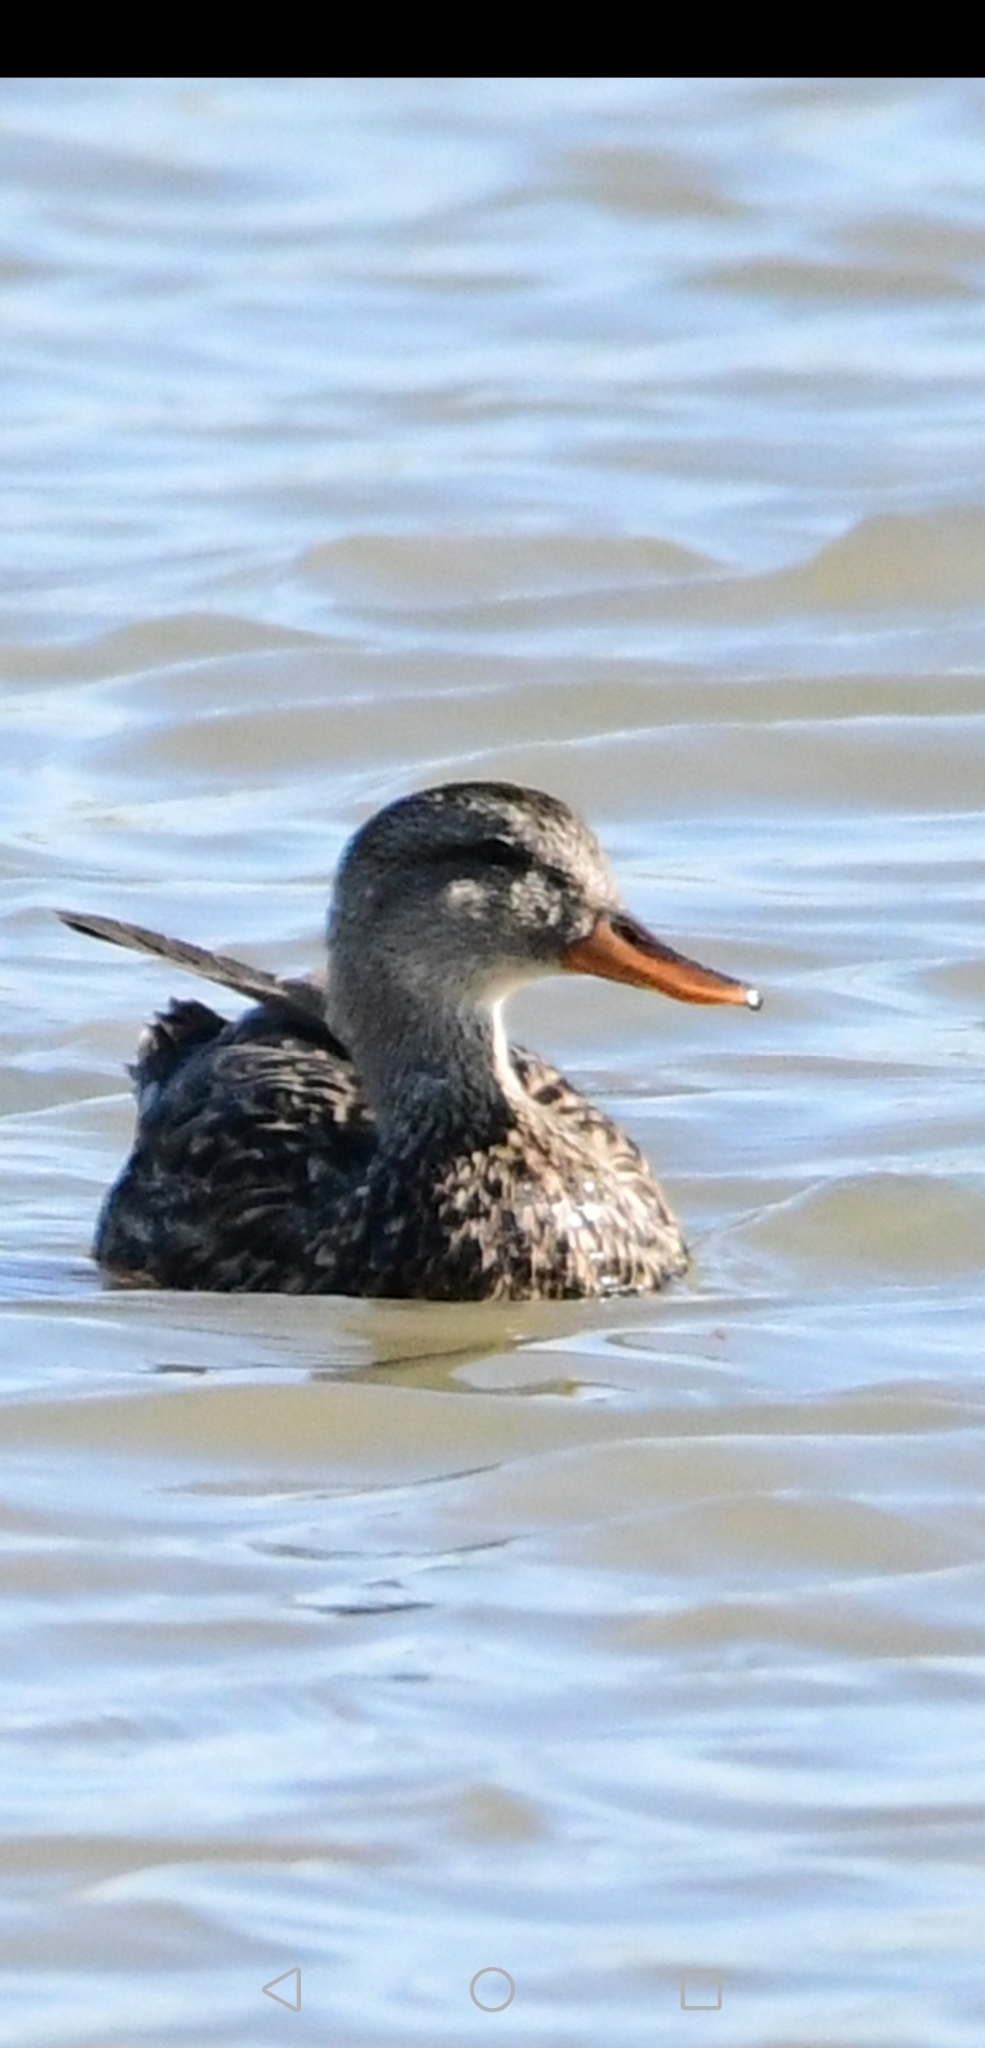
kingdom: Animalia
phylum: Chordata
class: Aves
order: Anseriformes
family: Anatidae
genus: Mareca
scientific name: Mareca strepera
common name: Gadwall
